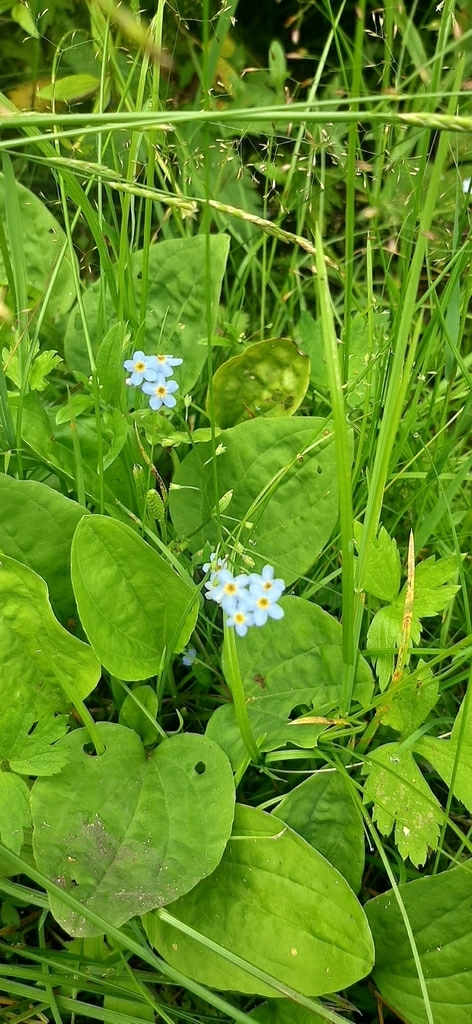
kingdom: Plantae
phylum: Tracheophyta
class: Magnoliopsida
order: Boraginales
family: Boraginaceae
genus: Myosotis
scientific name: Myosotis scorpioides
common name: Water forget-me-not
